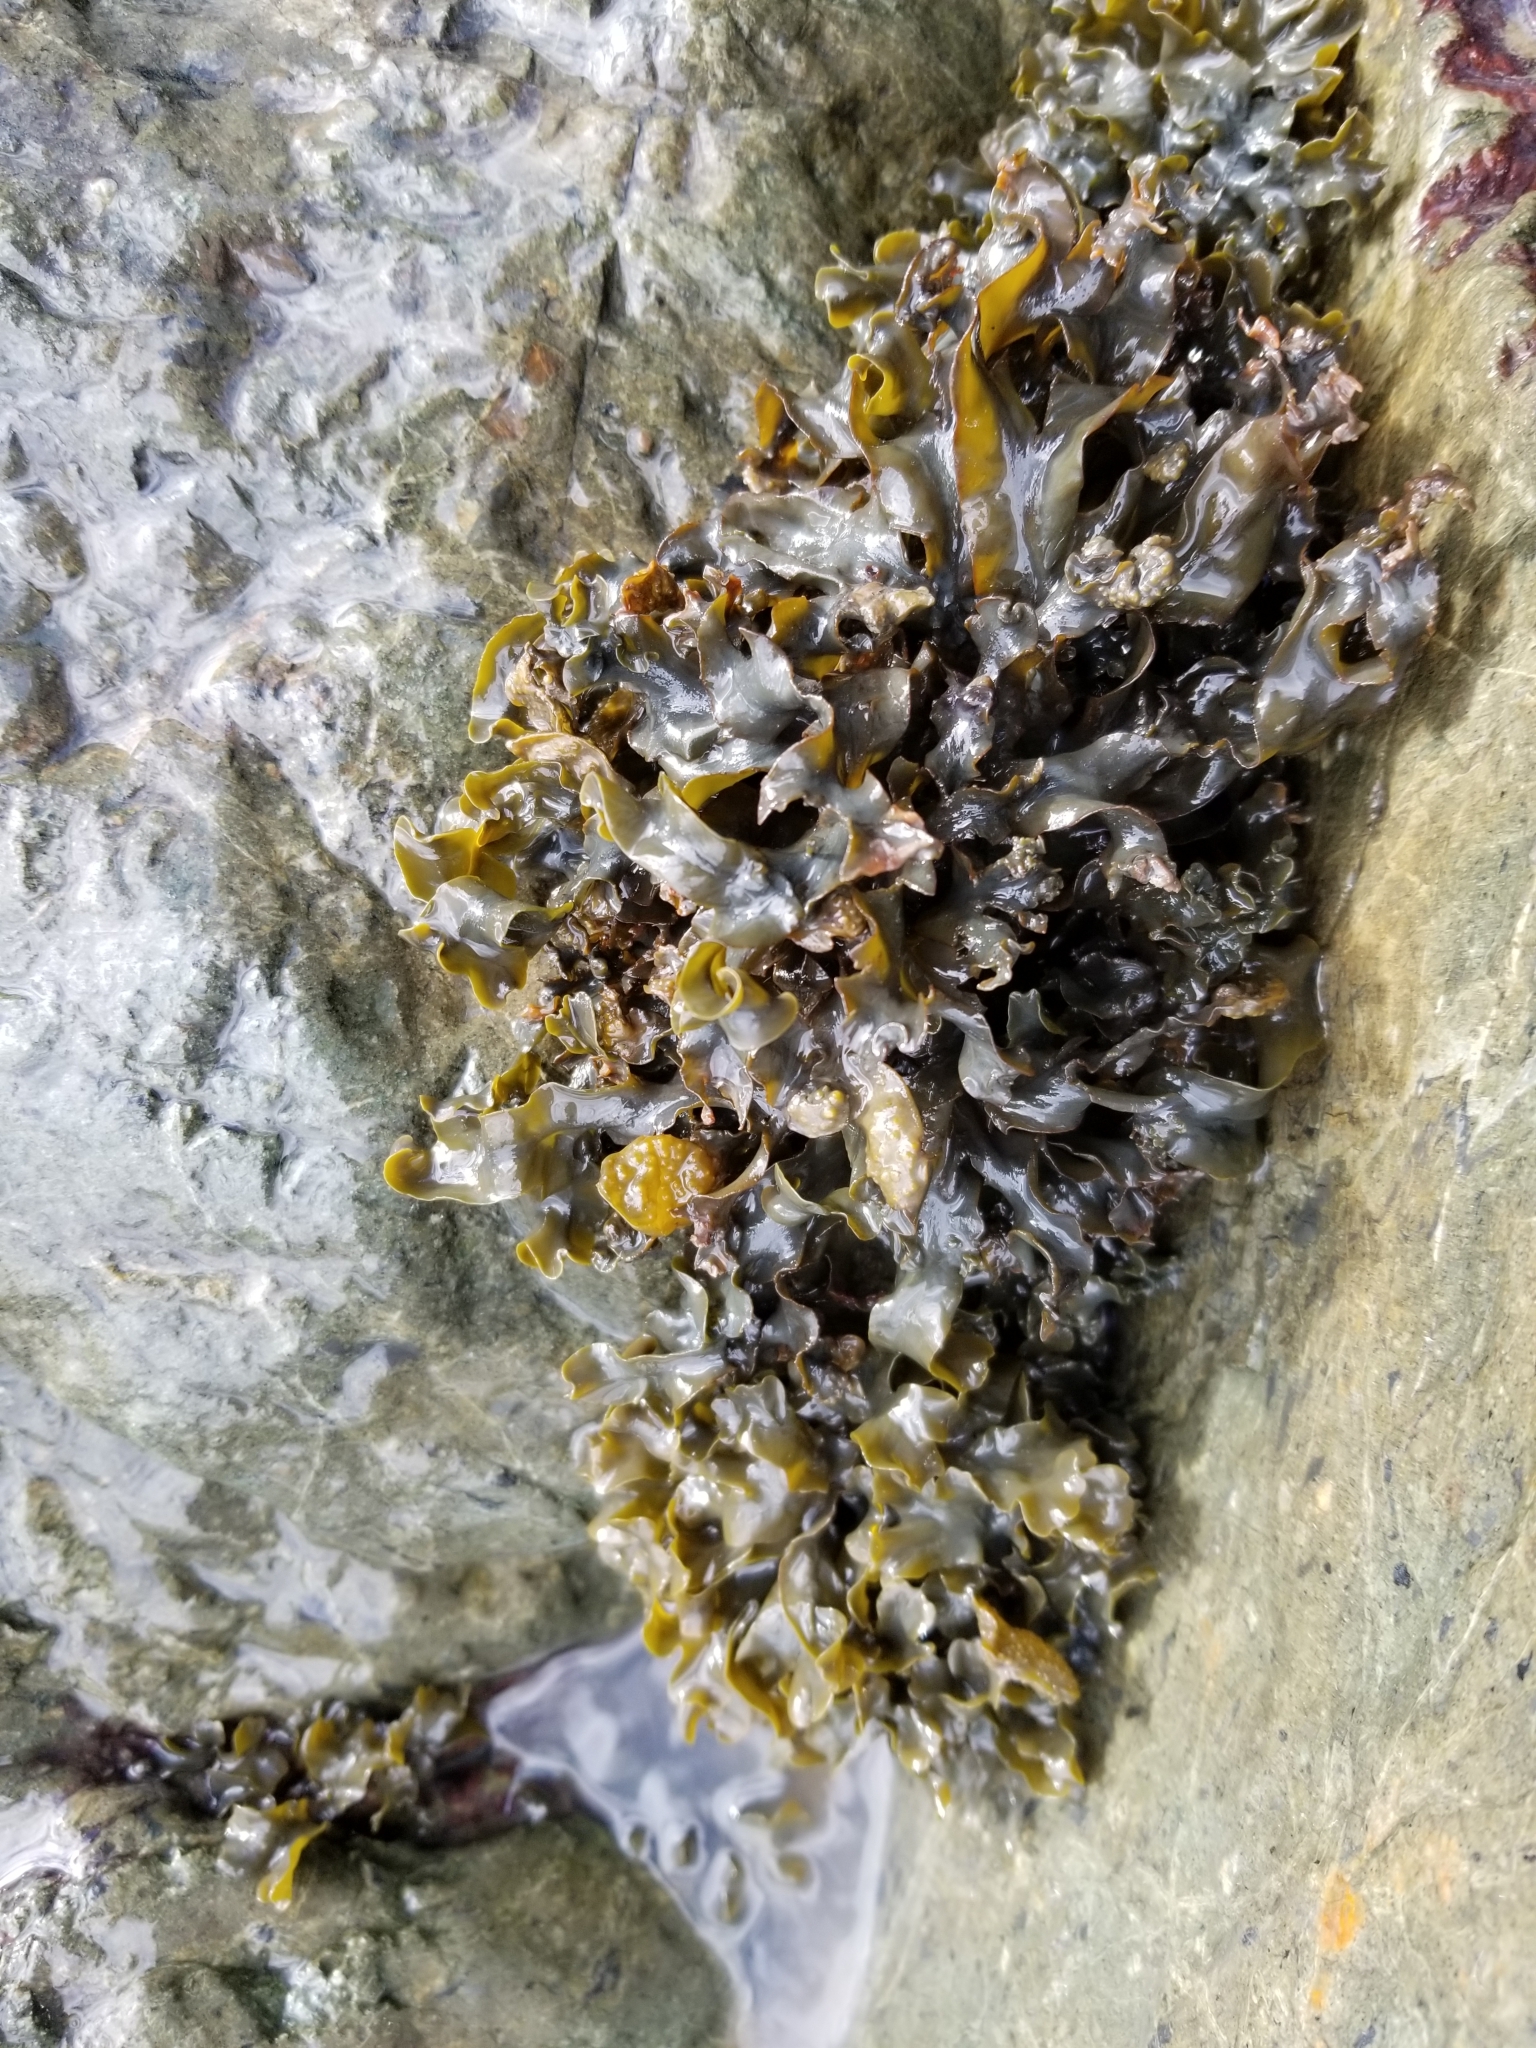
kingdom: Chromista
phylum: Ochrophyta
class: Phaeophyceae
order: Fucales
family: Fucaceae
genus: Fucus
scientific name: Fucus distichus
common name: Rockweed
